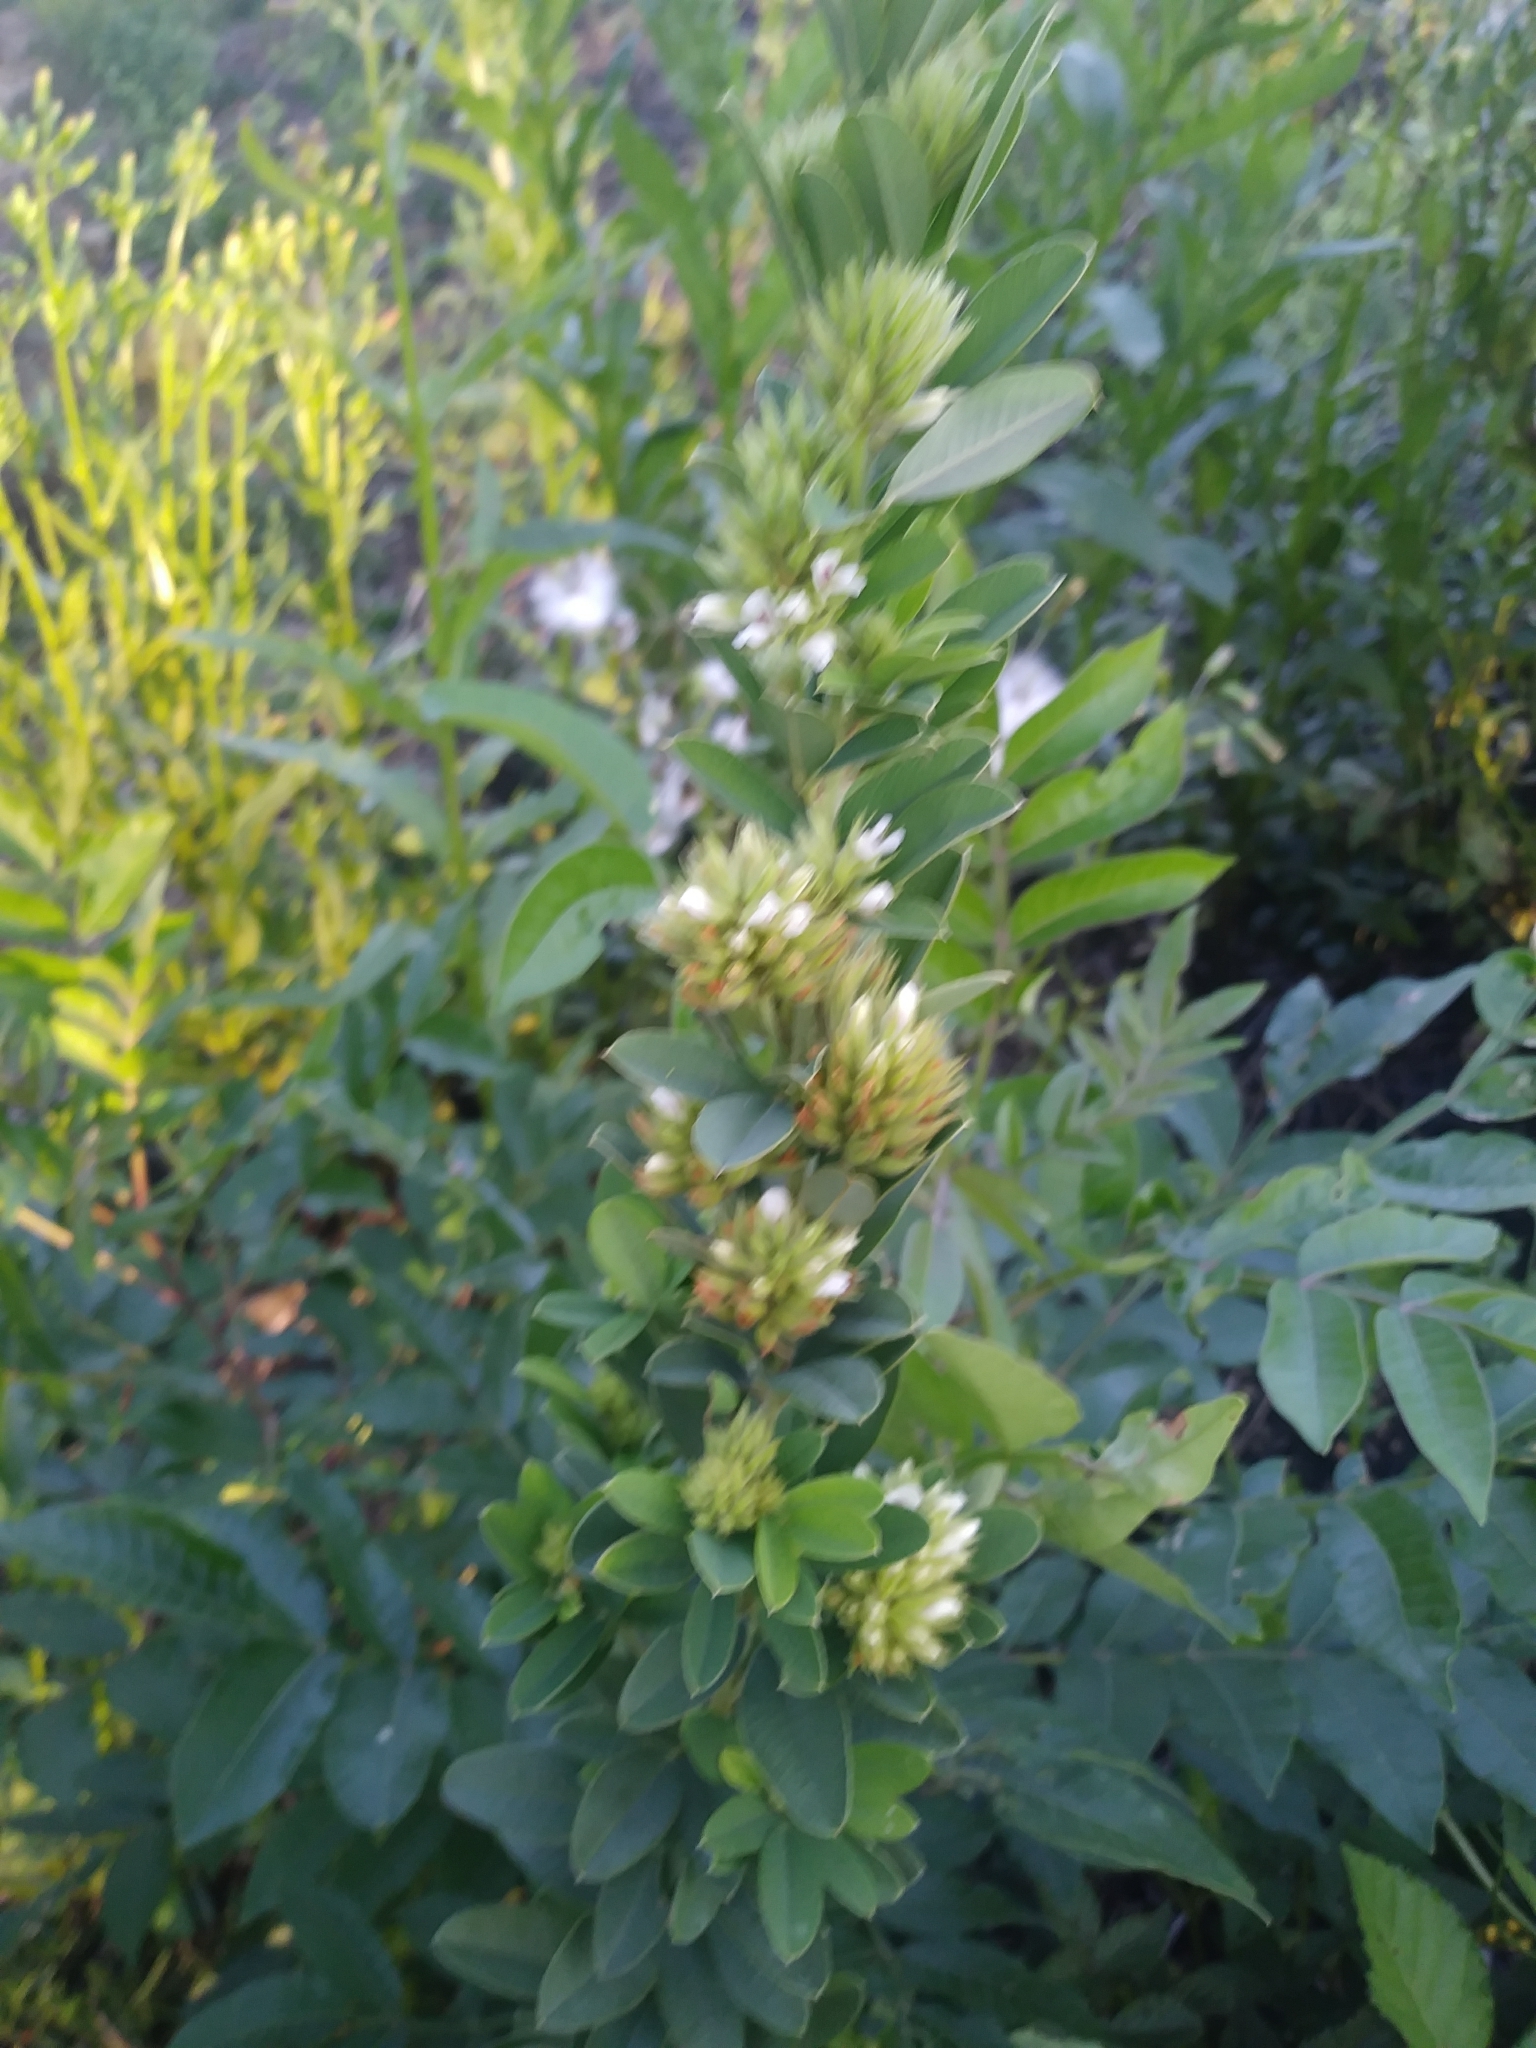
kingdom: Plantae
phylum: Tracheophyta
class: Magnoliopsida
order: Fabales
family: Fabaceae
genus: Lespedeza
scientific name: Lespedeza capitata
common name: Dusty clover
